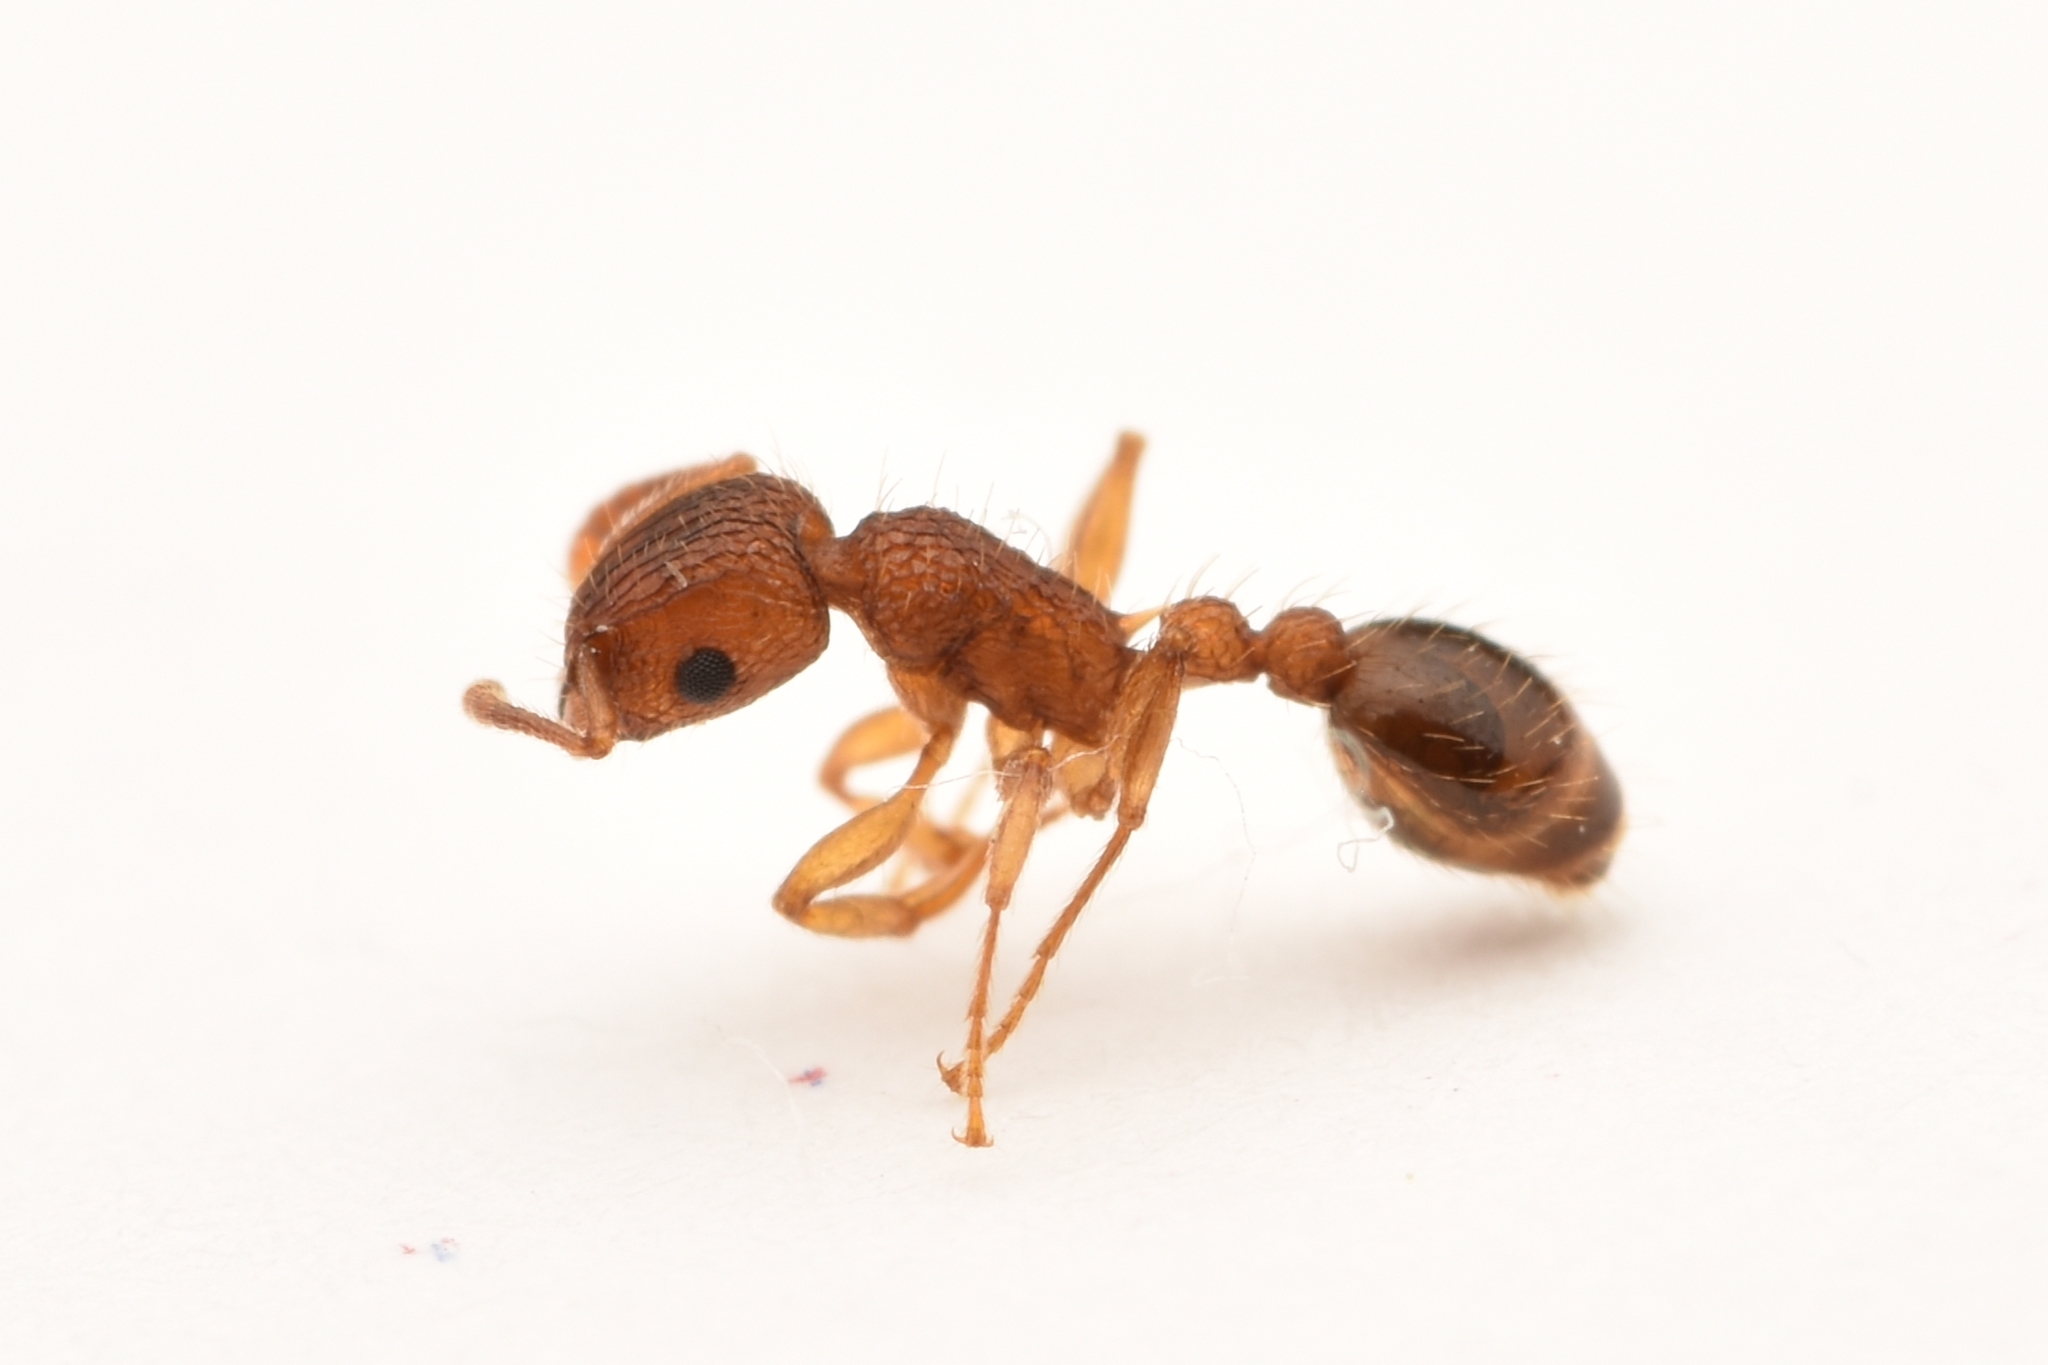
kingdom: Animalia
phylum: Arthropoda
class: Insecta
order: Hymenoptera
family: Formicidae
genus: Tetramorium
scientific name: Tetramorium bicarinatum
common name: Guinea ant
